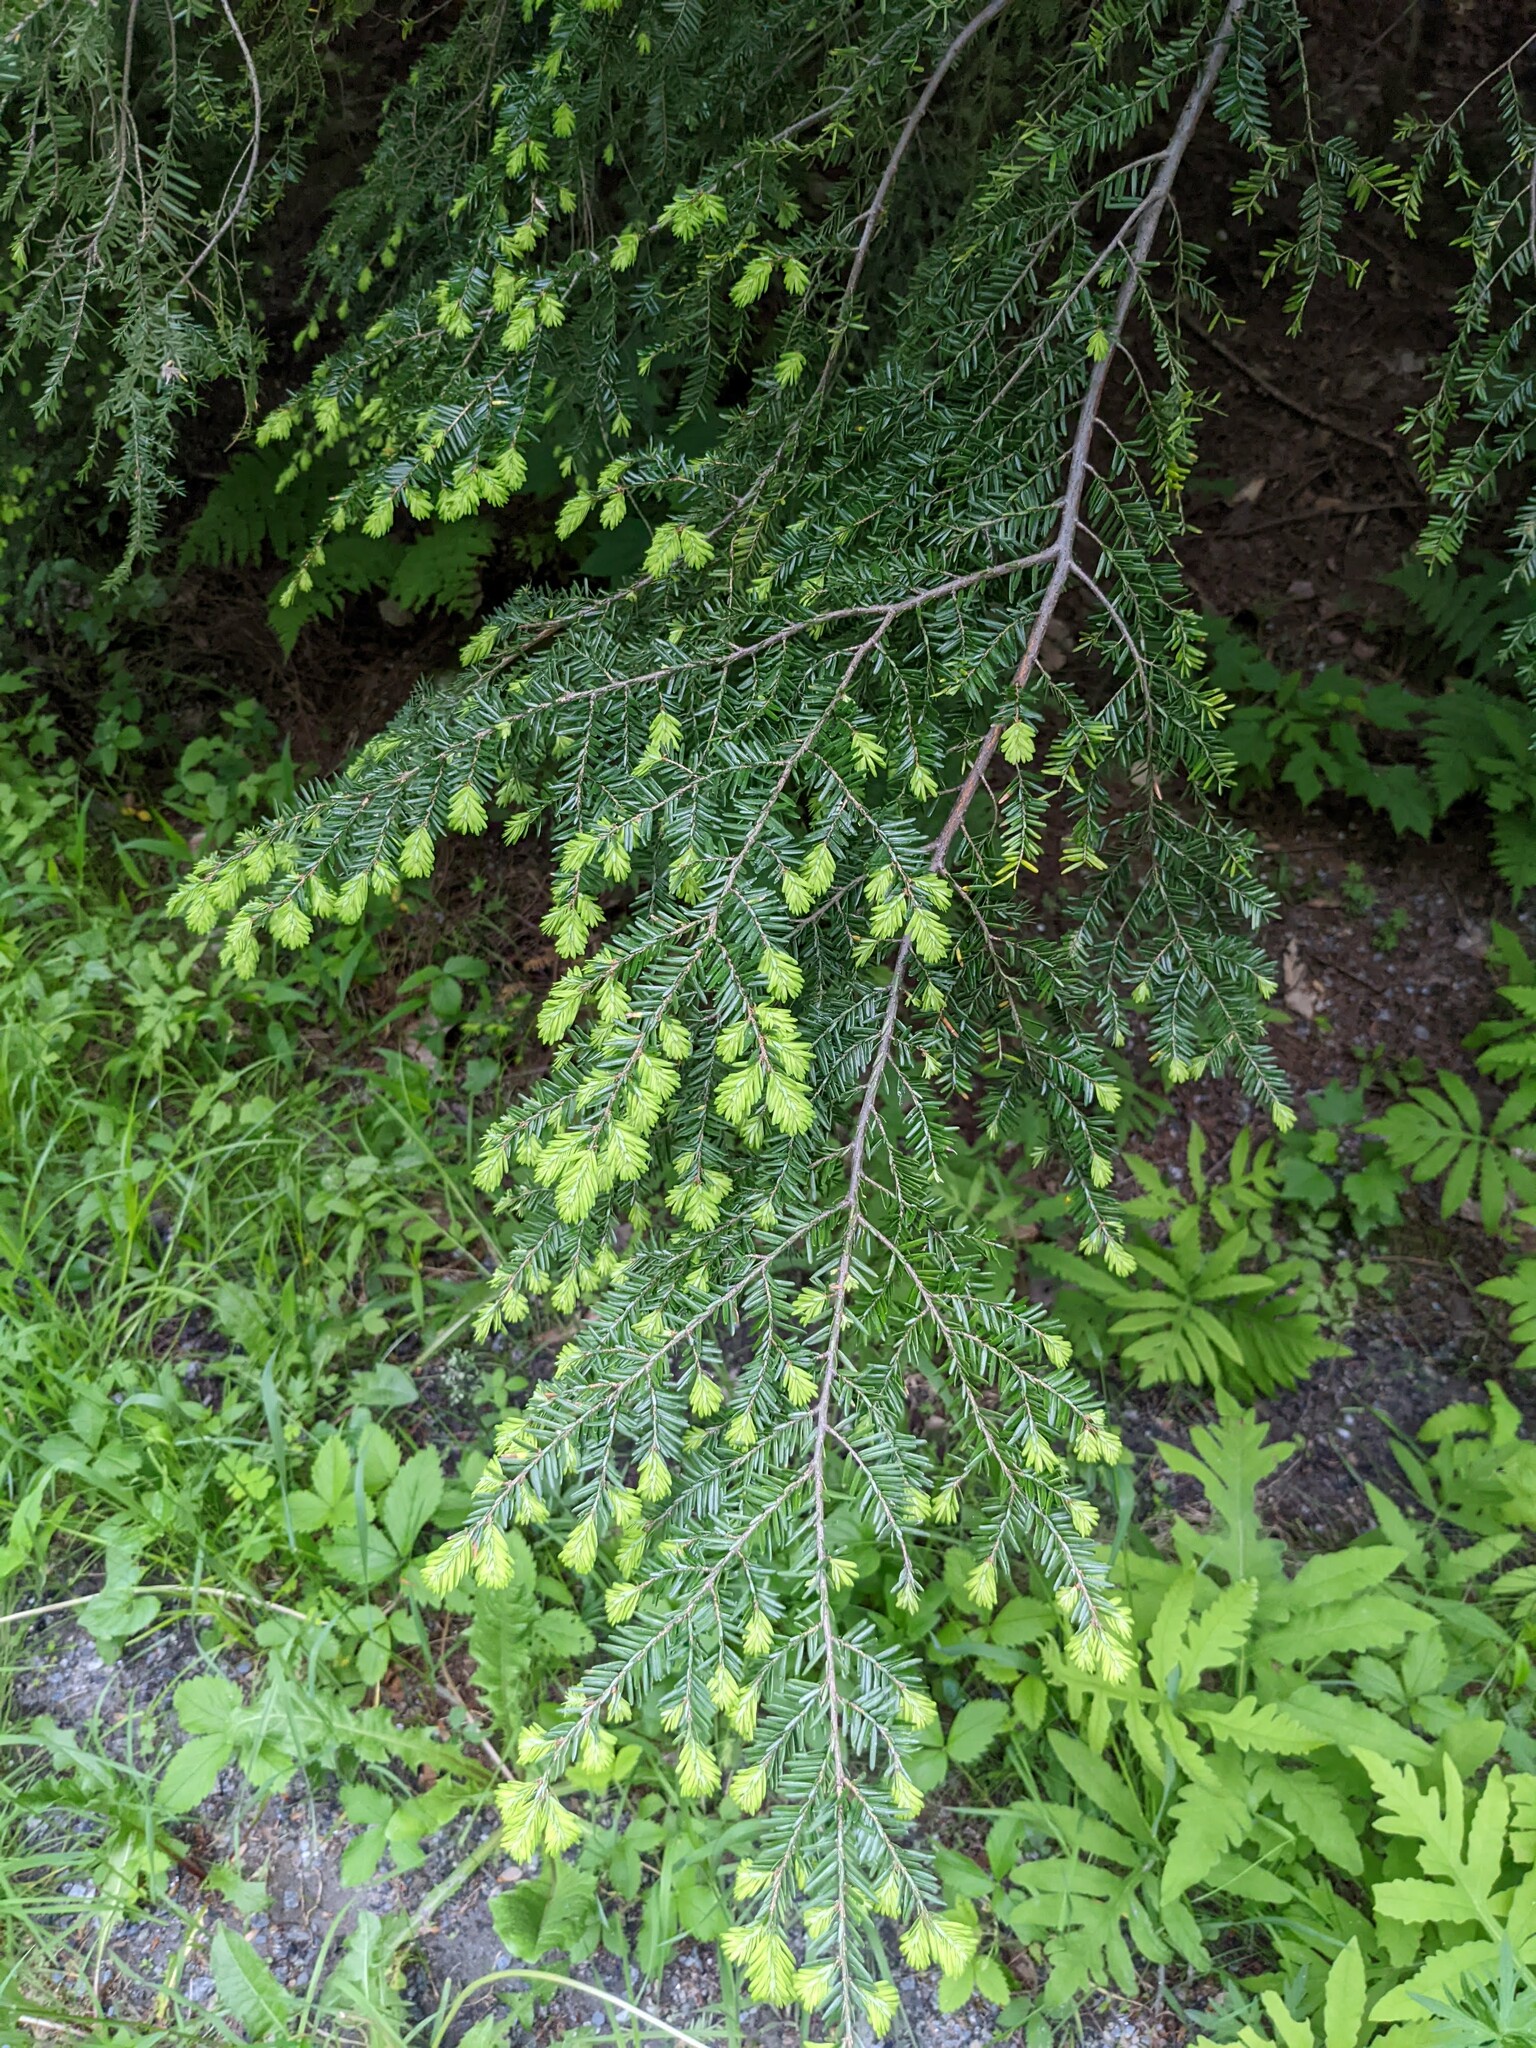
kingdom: Plantae
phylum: Tracheophyta
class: Pinopsida
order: Pinales
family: Pinaceae
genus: Tsuga
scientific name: Tsuga canadensis
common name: Eastern hemlock
